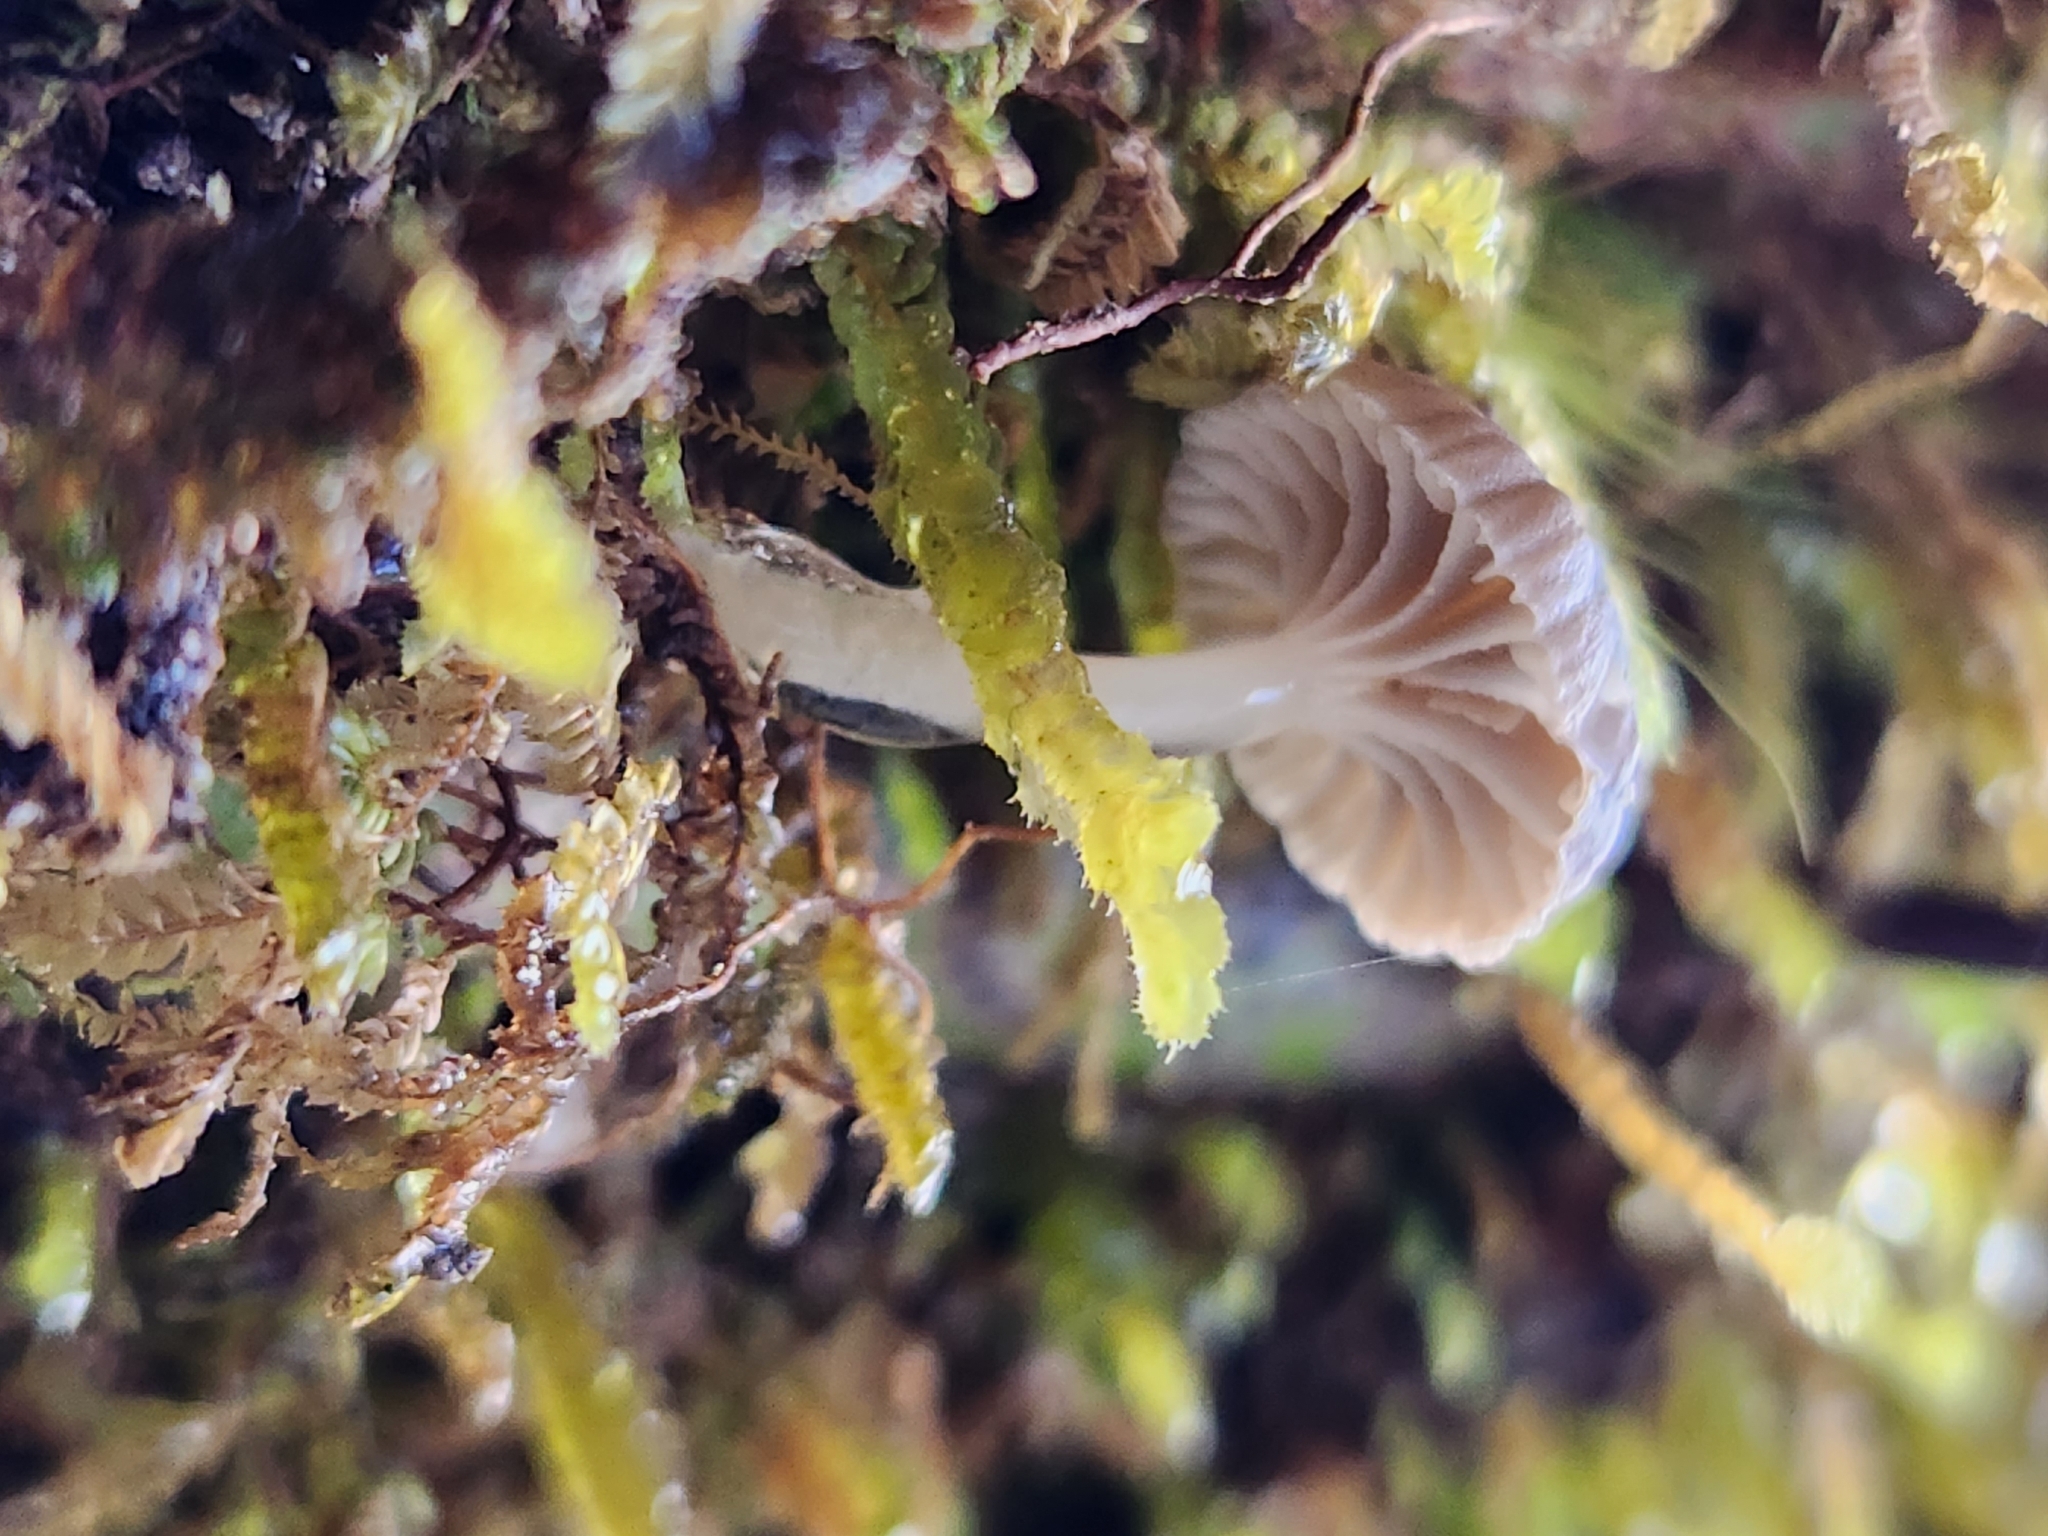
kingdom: Fungi
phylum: Basidiomycota
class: Agaricomycetes
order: Agaricales
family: Mycenaceae
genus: Roridomyces
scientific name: Roridomyces austrororidus
